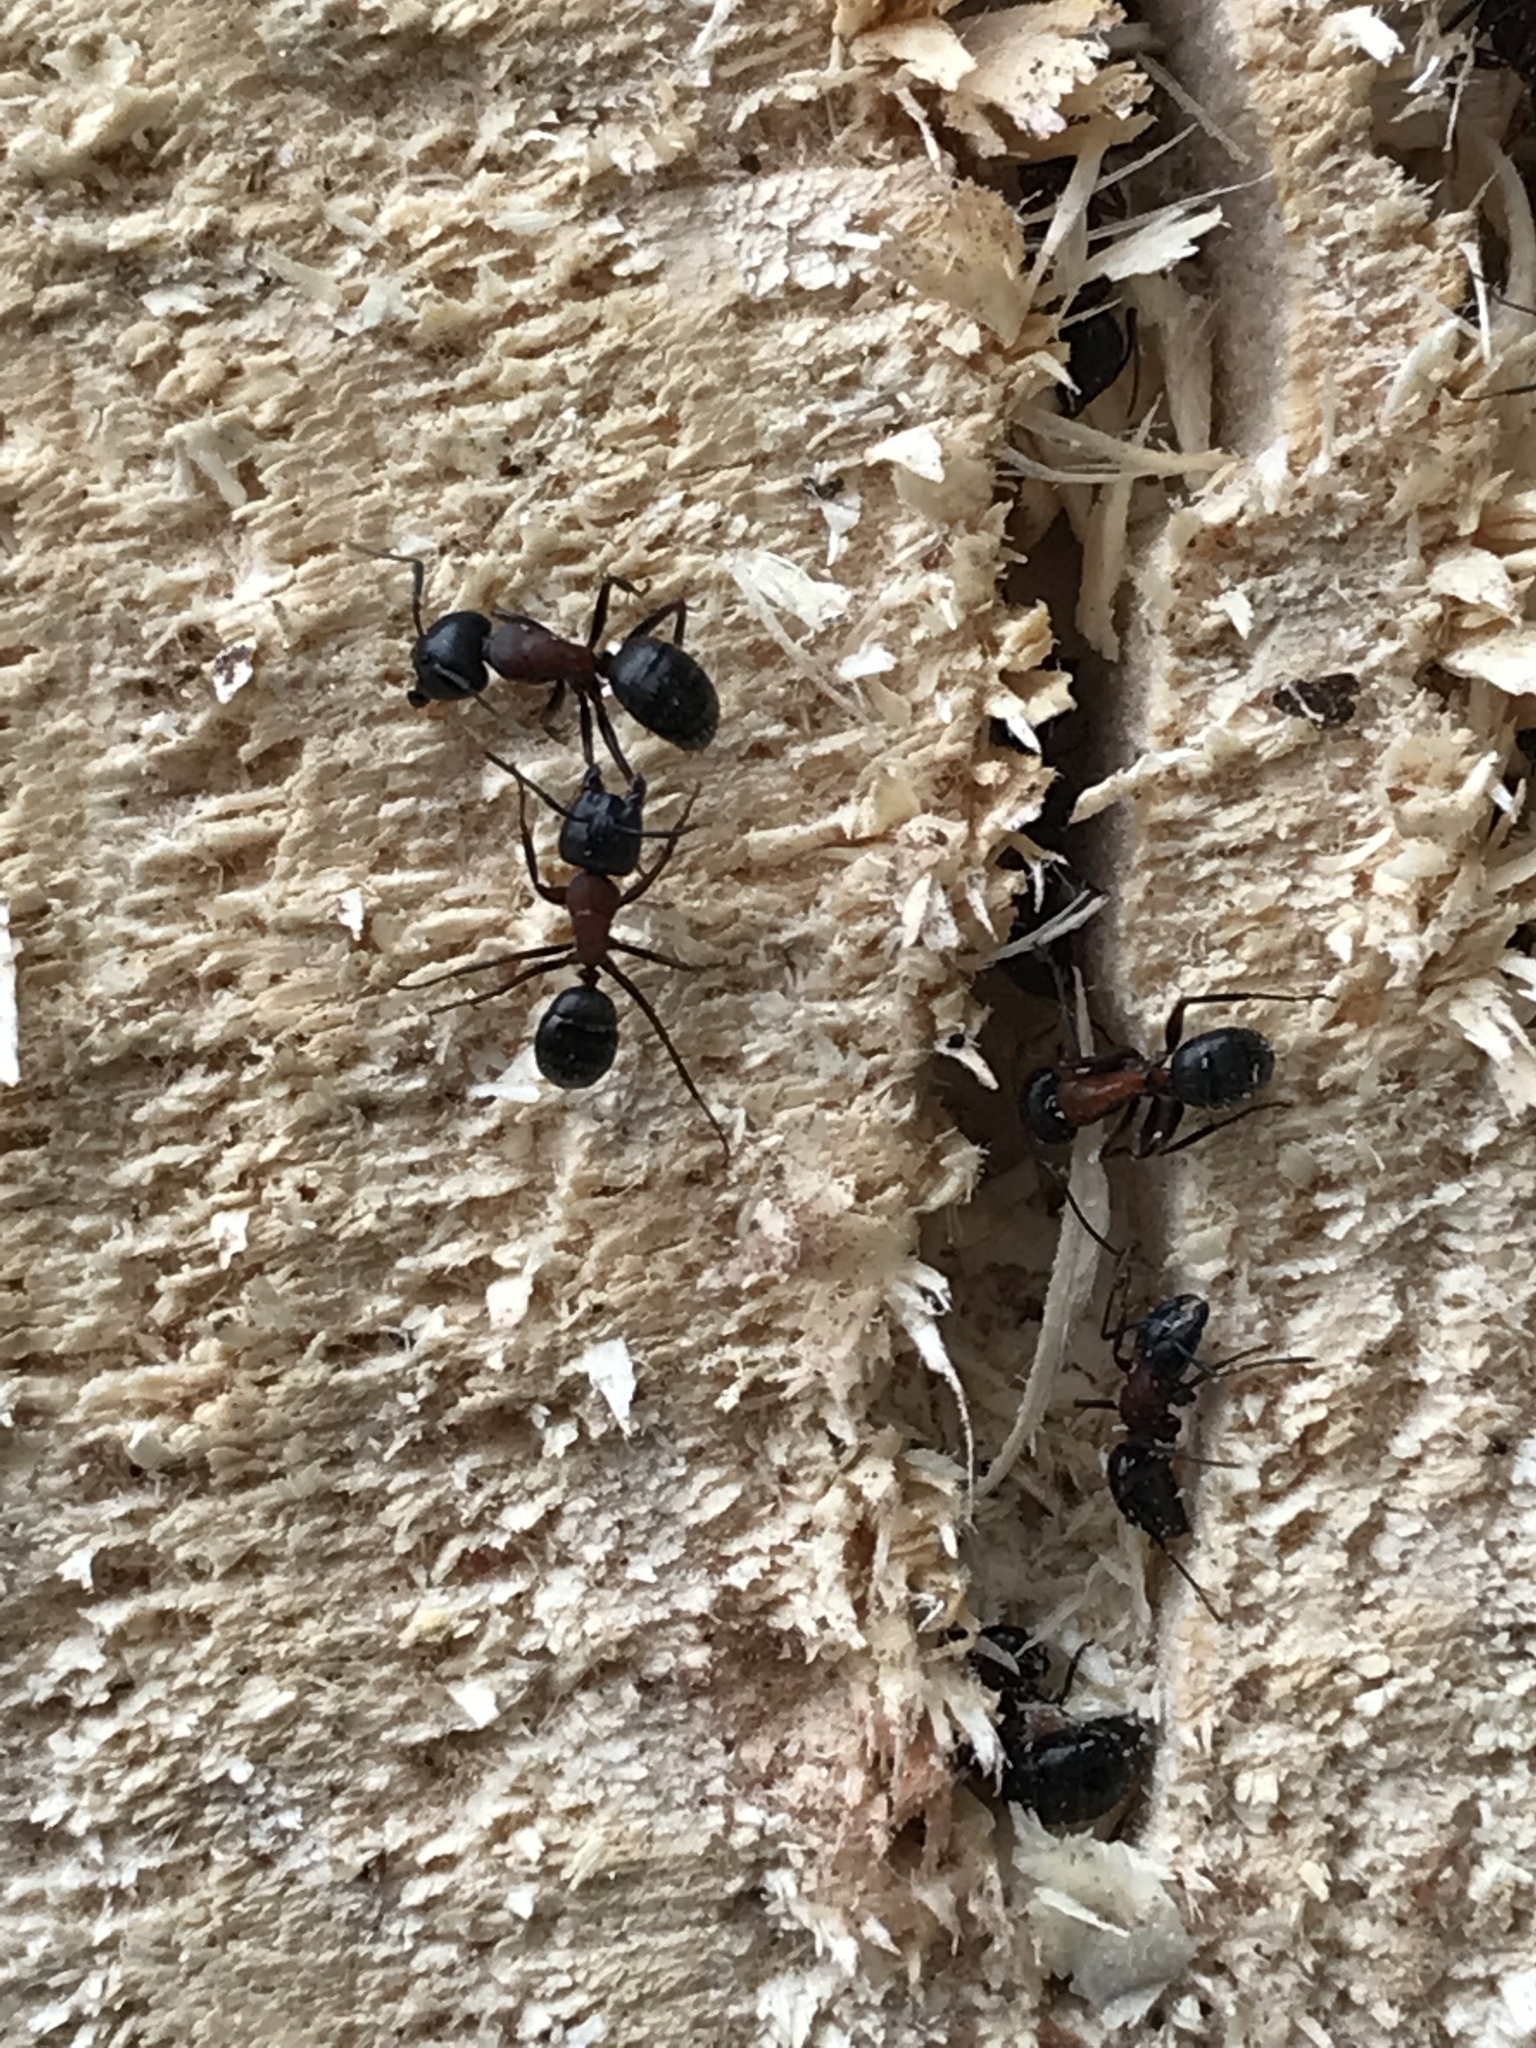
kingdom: Animalia
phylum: Arthropoda
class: Insecta
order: Hymenoptera
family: Formicidae
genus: Camponotus
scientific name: Camponotus novaeboracensis
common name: New york carpenter ant
